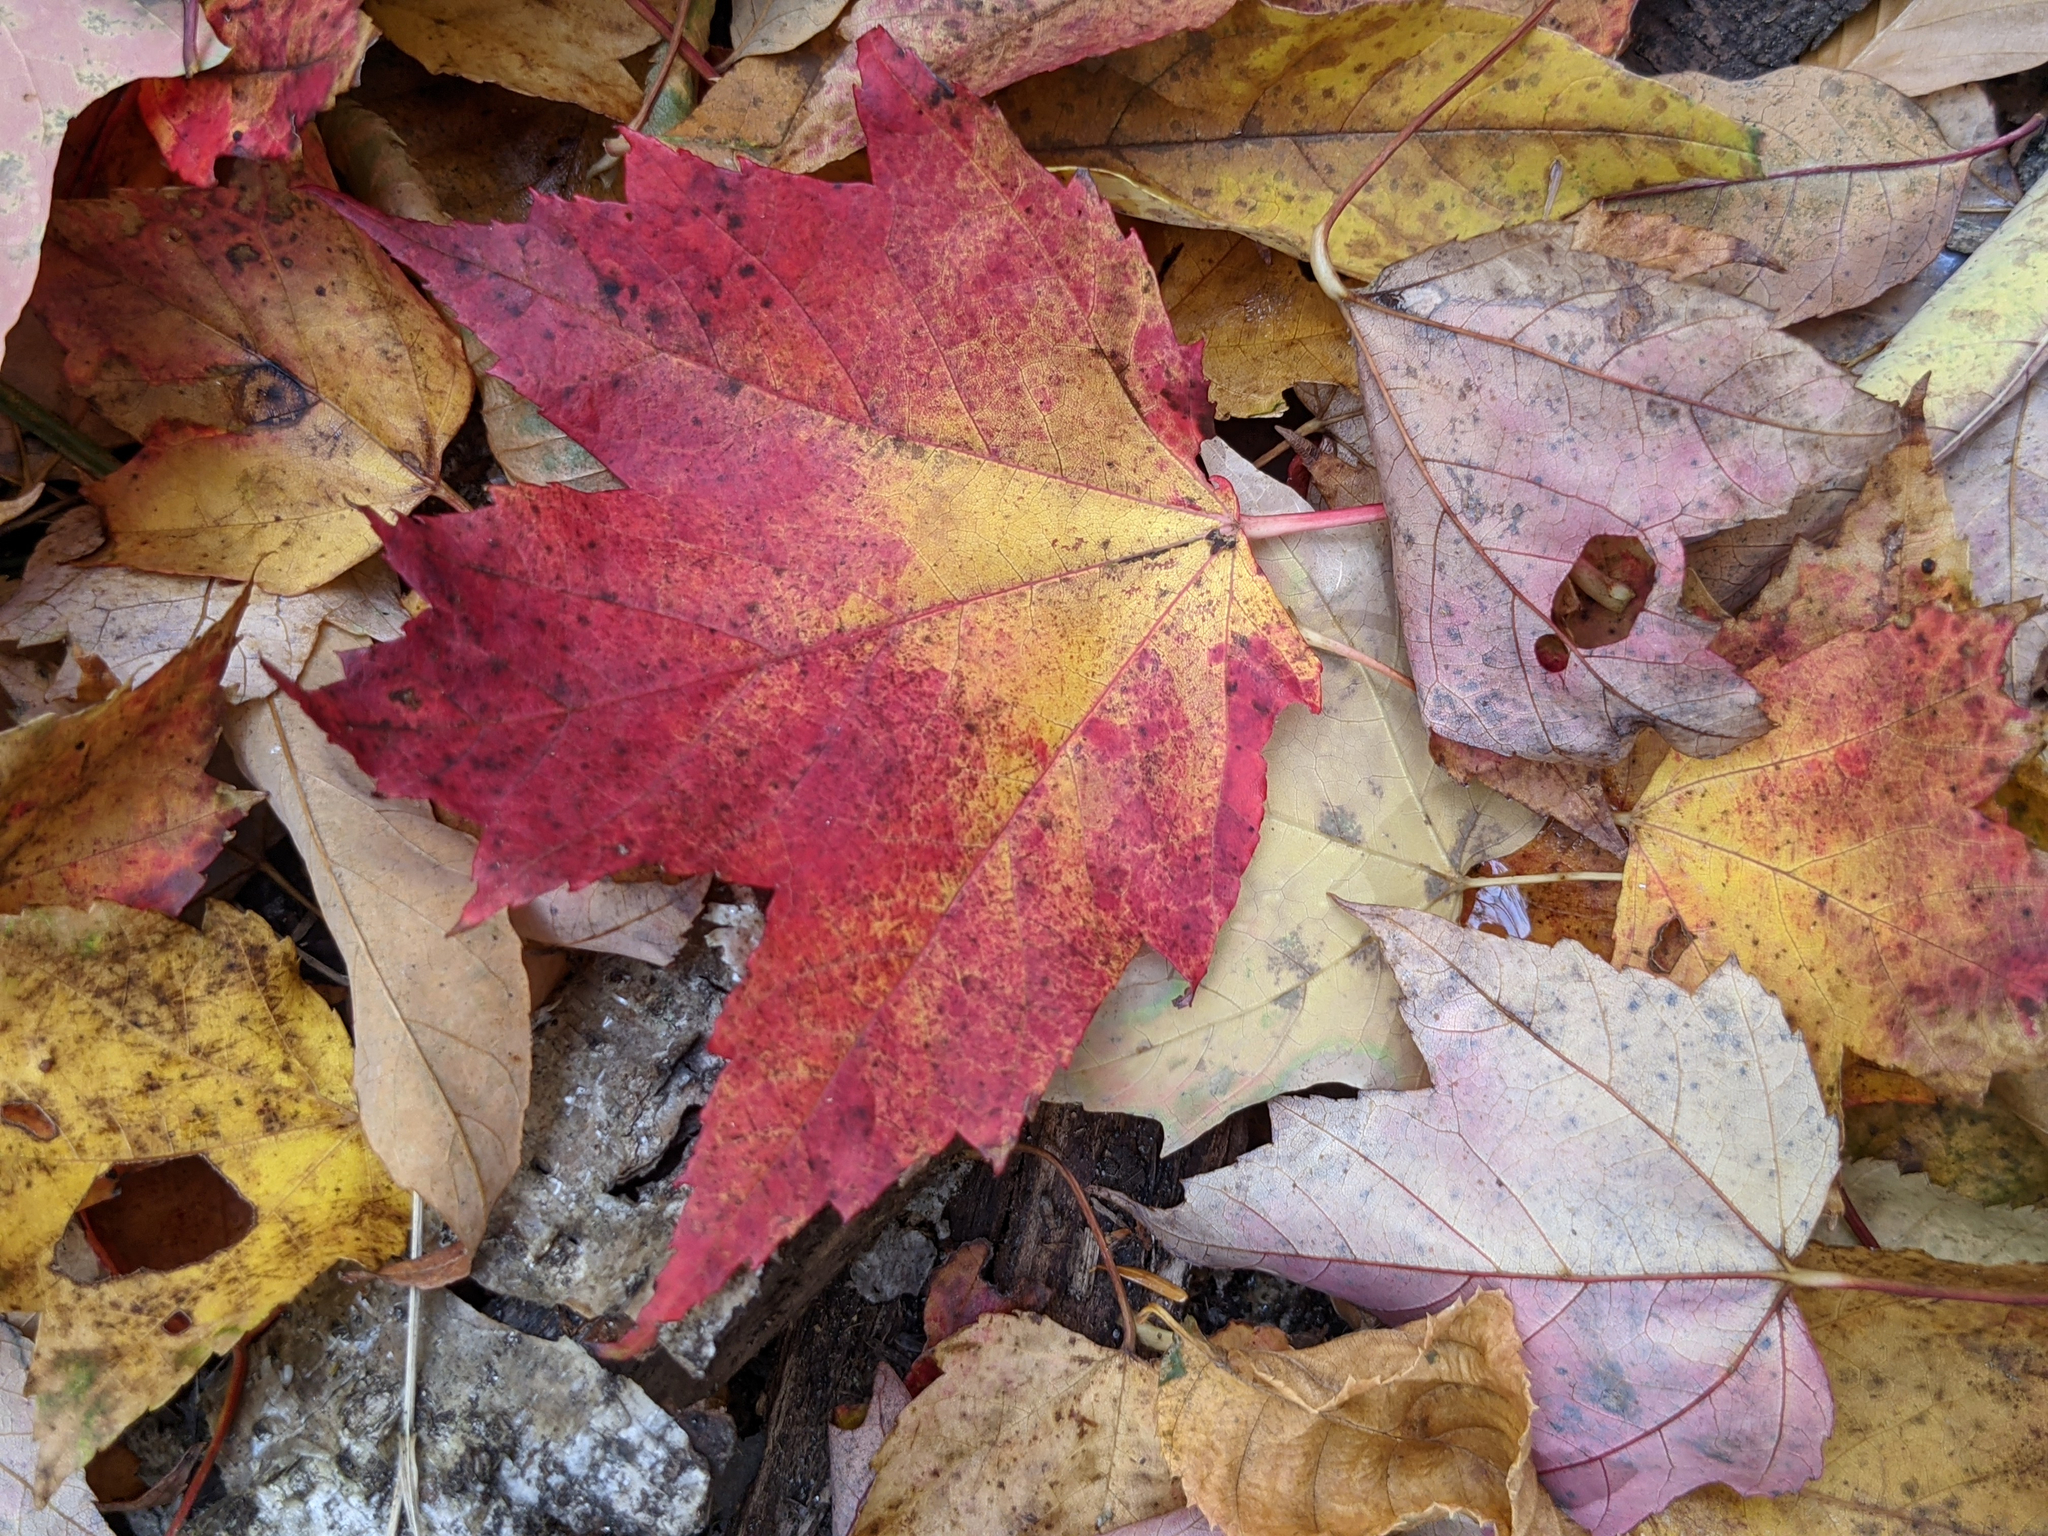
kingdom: Plantae
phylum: Tracheophyta
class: Magnoliopsida
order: Sapindales
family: Sapindaceae
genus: Acer
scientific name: Acer rubrum
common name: Red maple
